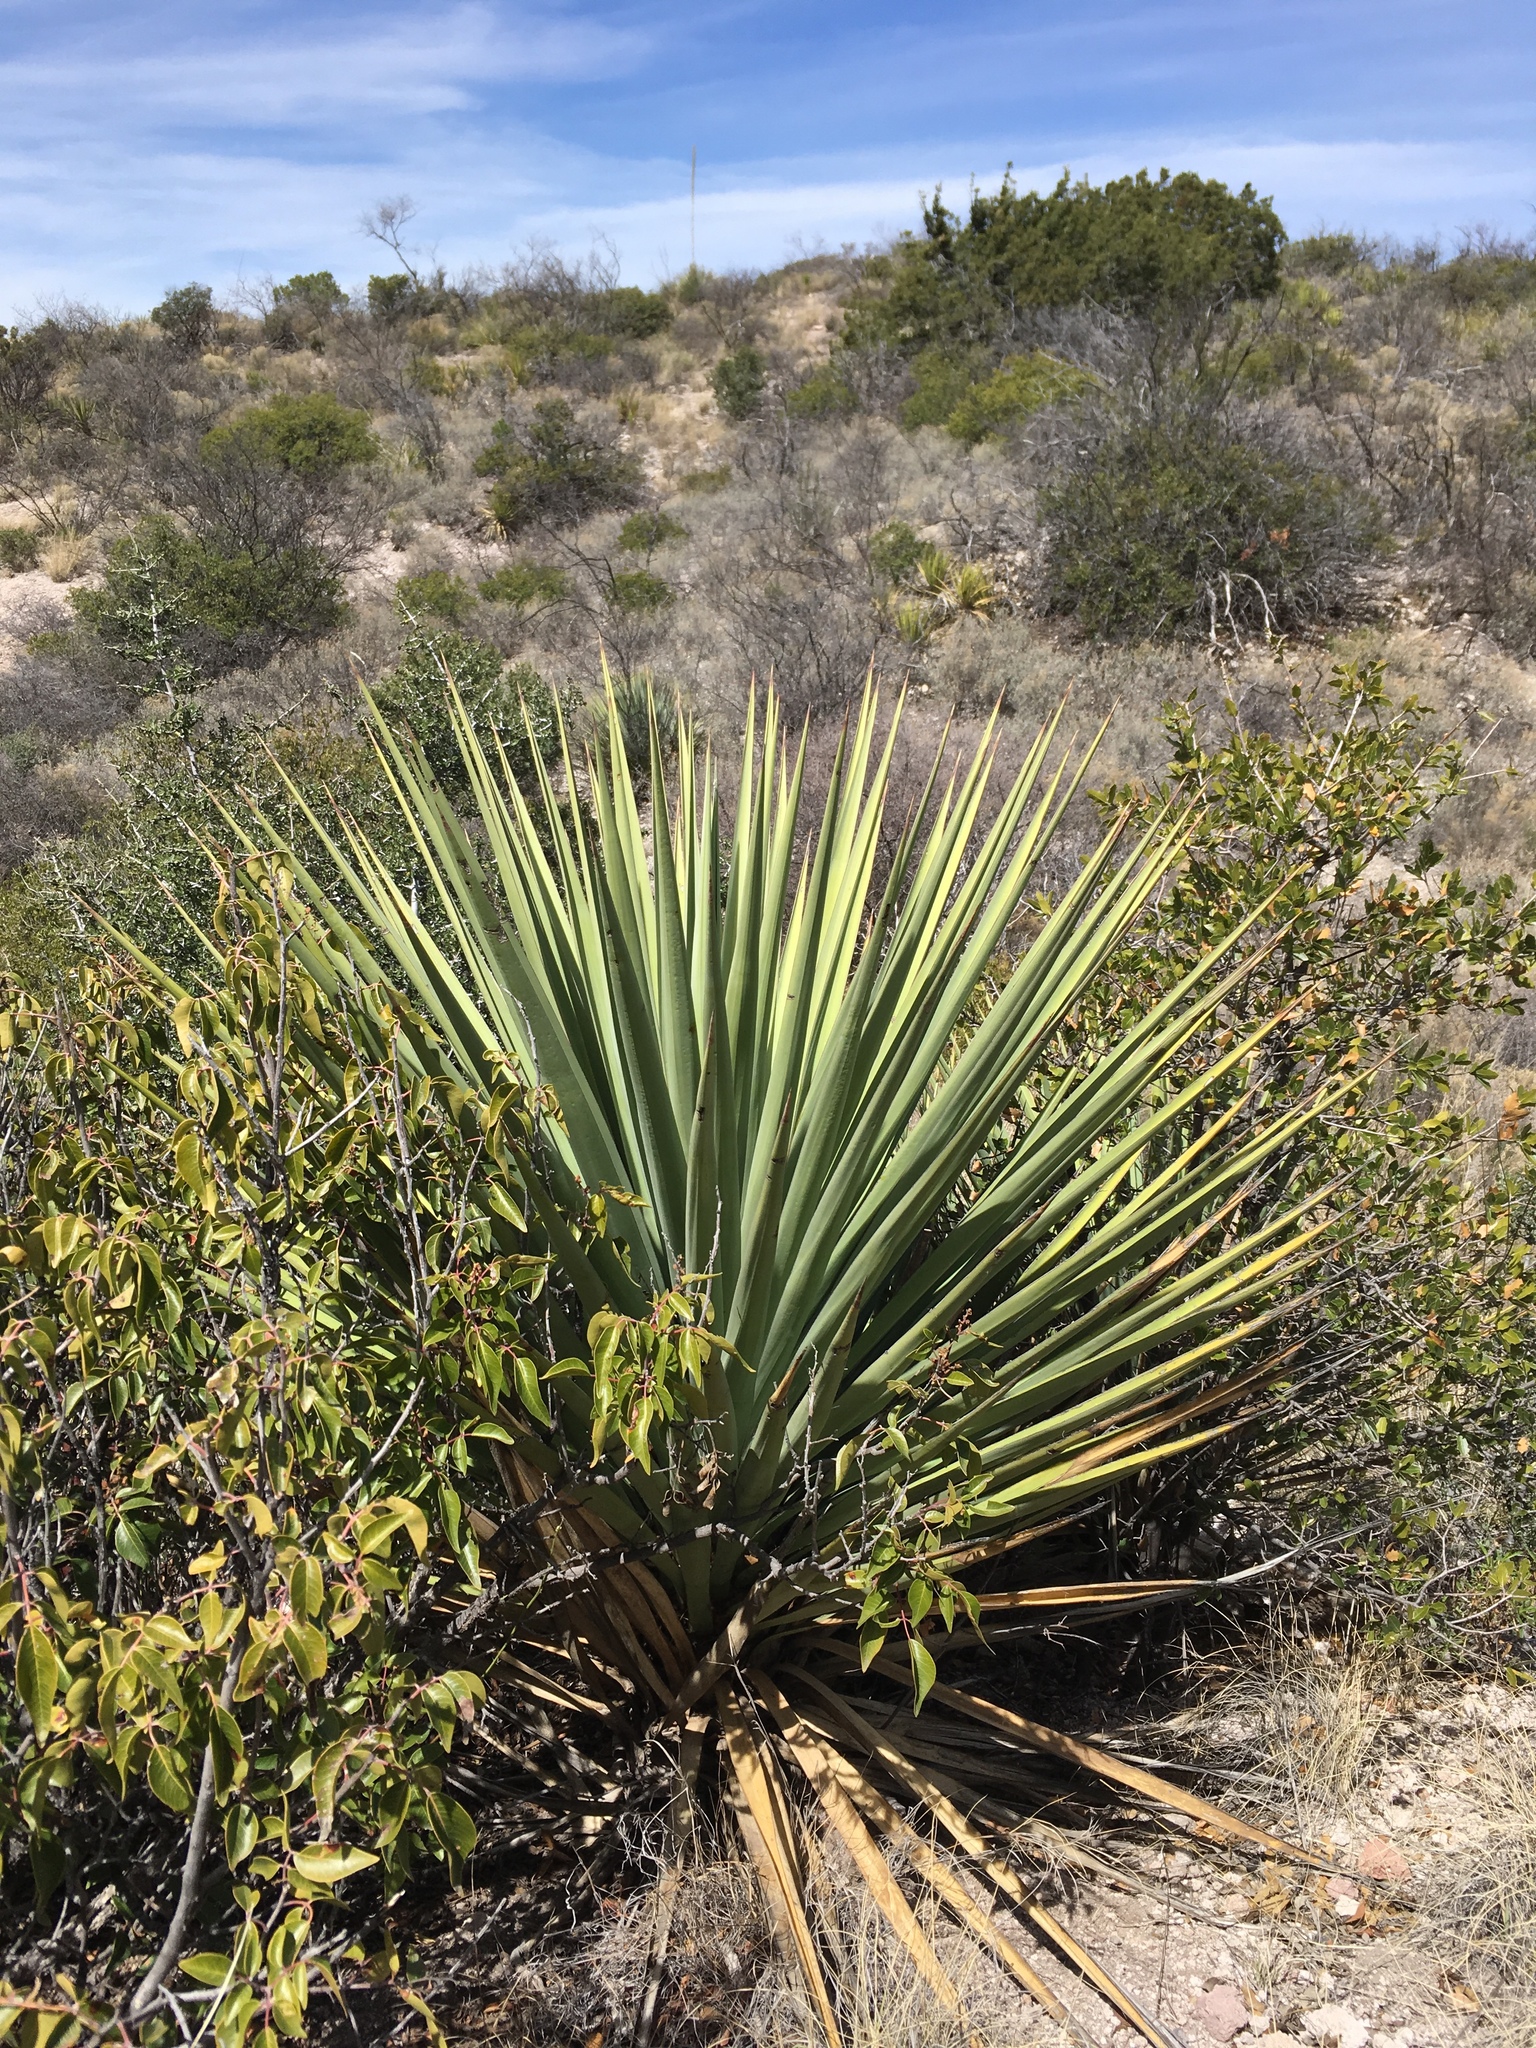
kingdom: Plantae
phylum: Tracheophyta
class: Liliopsida
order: Asparagales
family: Asparagaceae
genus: Yucca
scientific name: Yucca madrensis
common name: Hoary yucca
